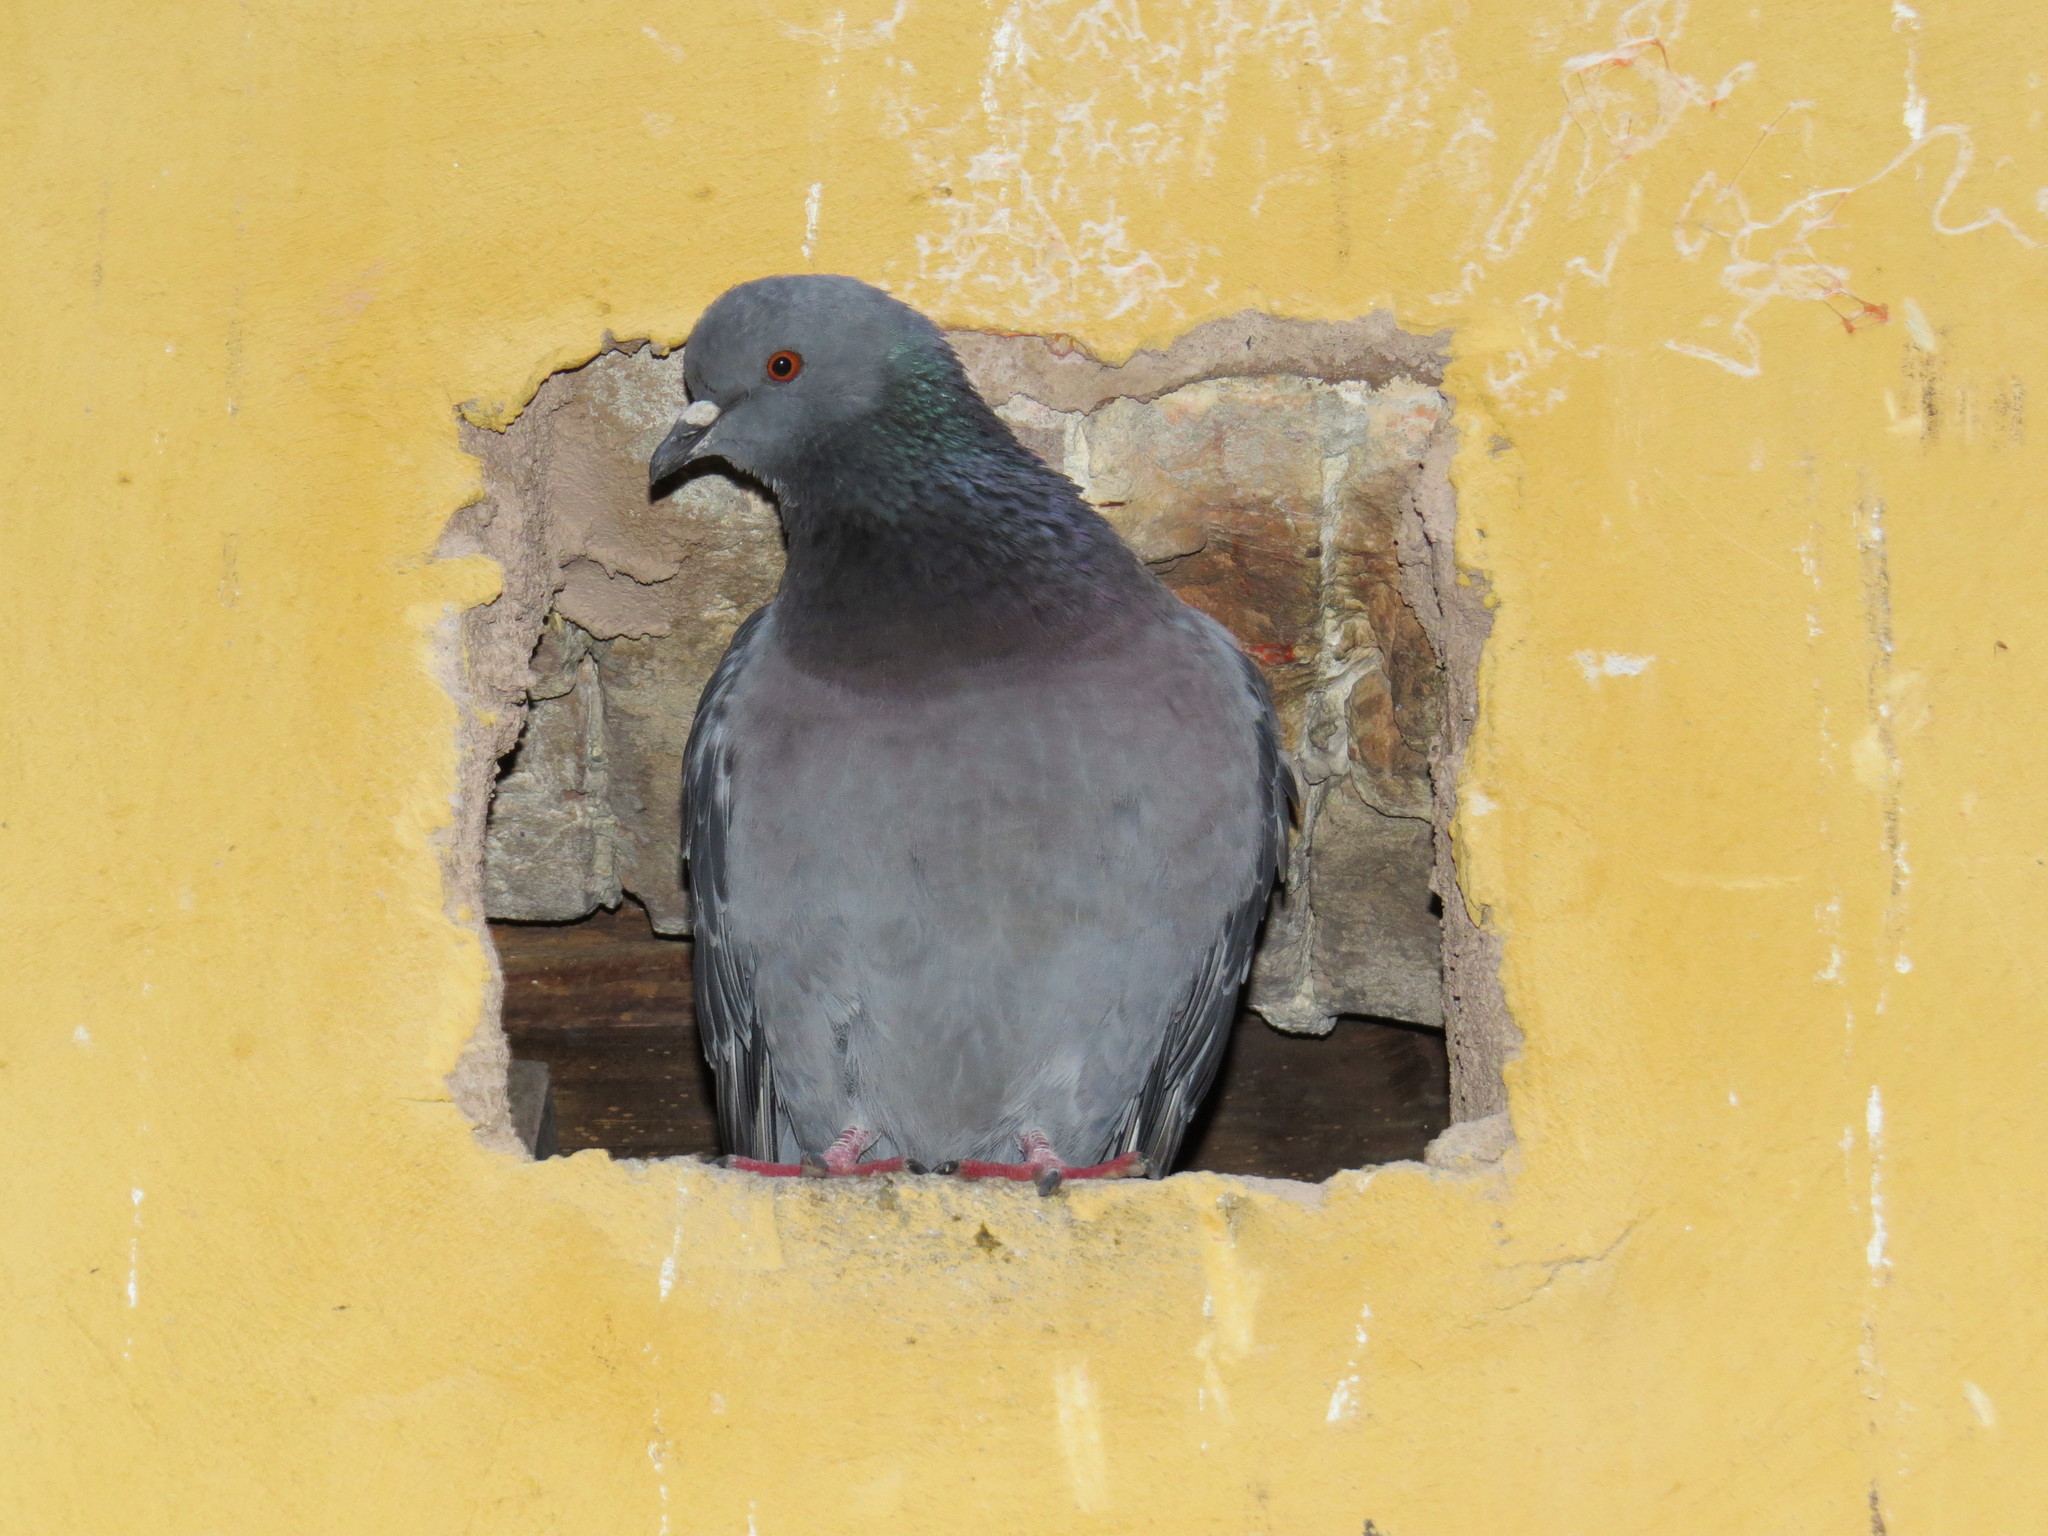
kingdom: Animalia
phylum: Chordata
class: Aves
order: Columbiformes
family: Columbidae
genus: Columba
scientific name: Columba livia
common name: Rock pigeon
